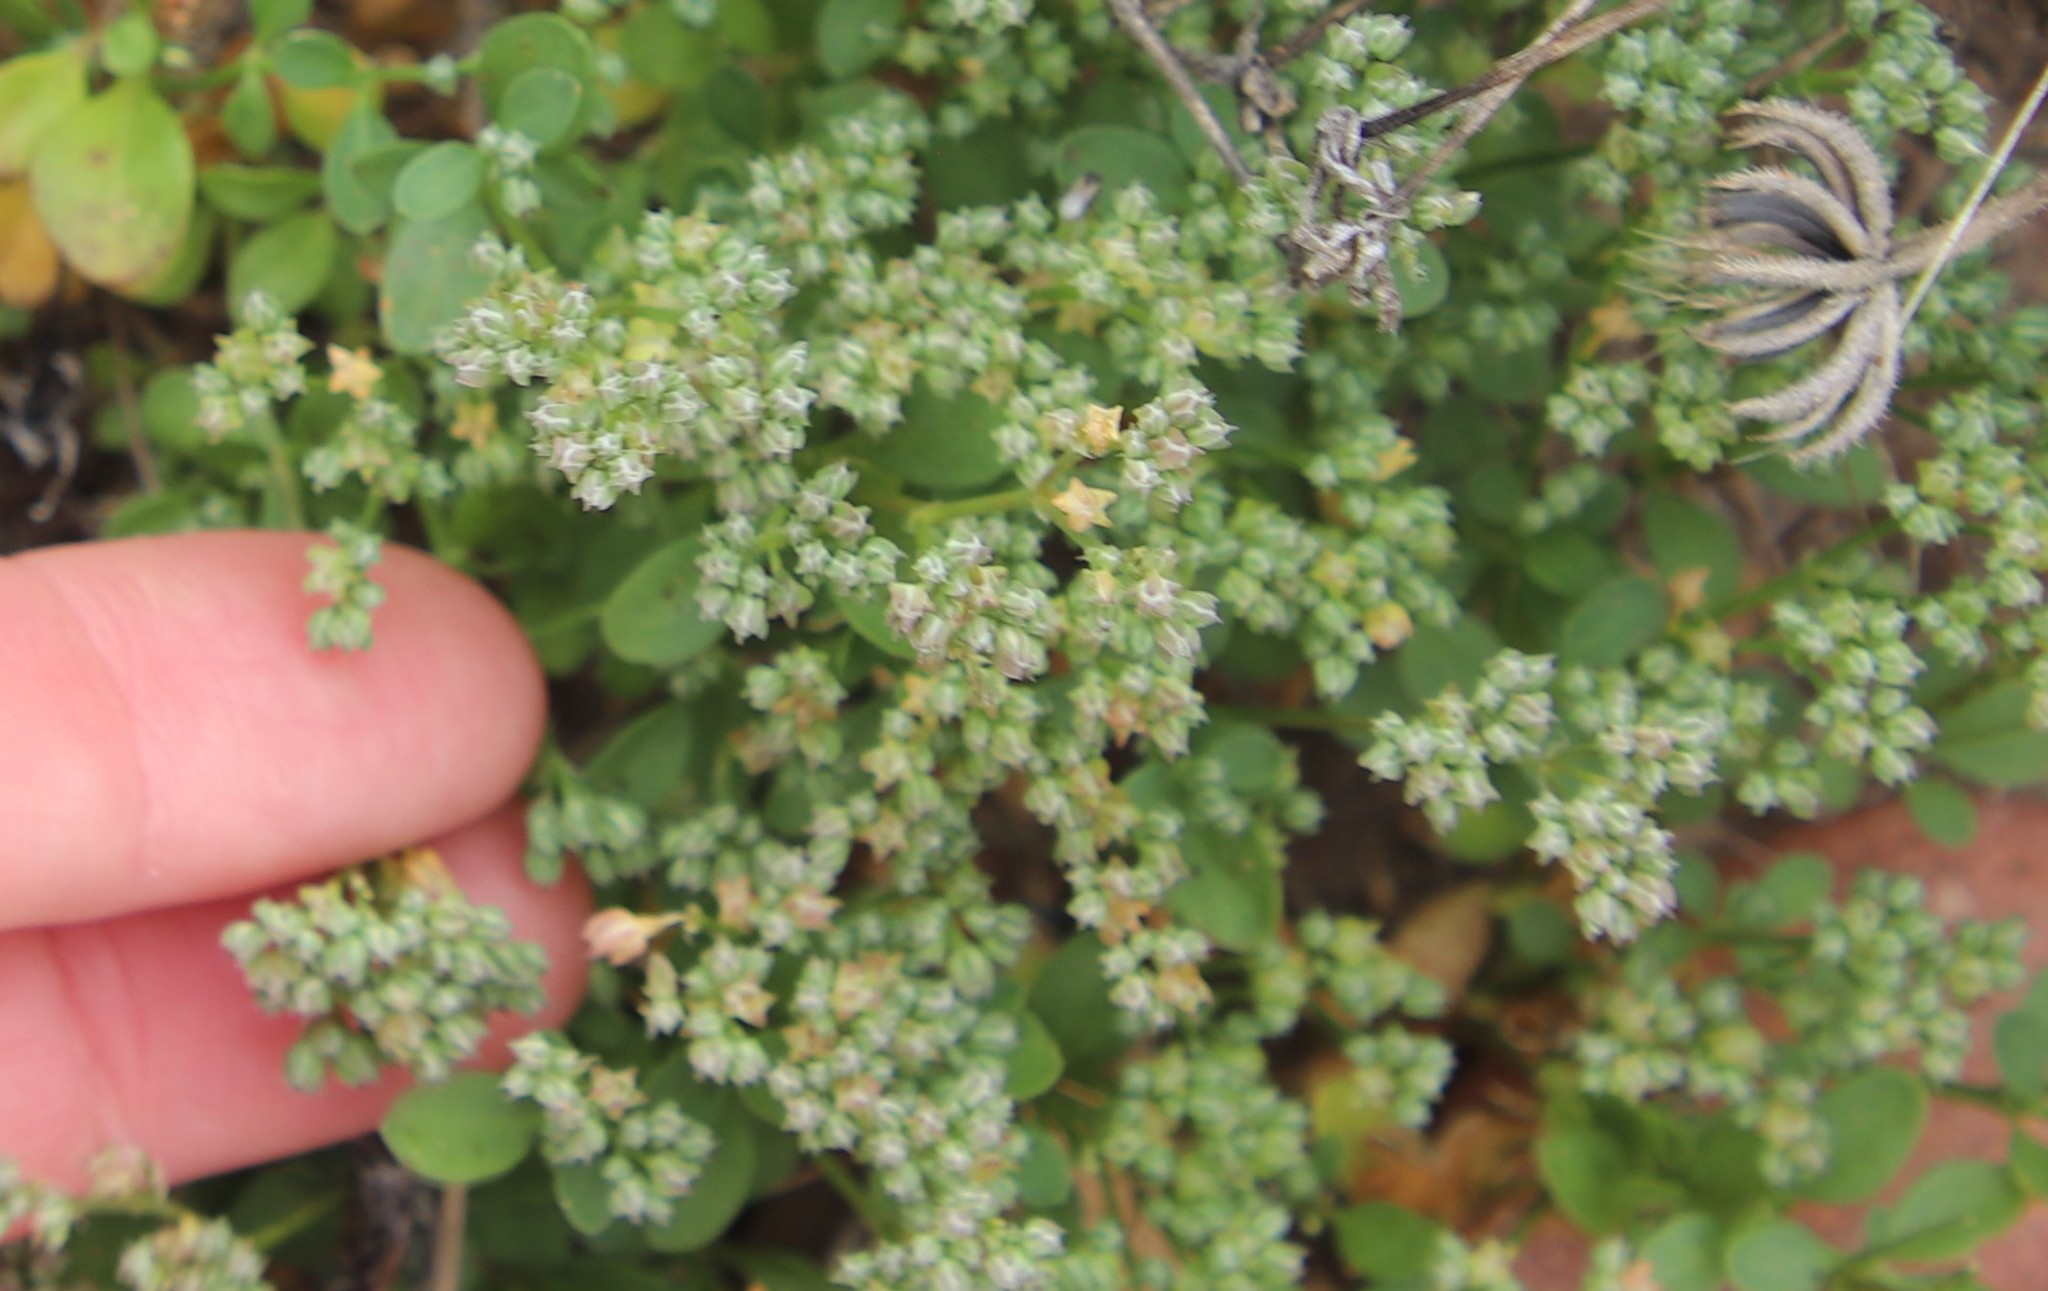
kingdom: Plantae
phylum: Tracheophyta
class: Magnoliopsida
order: Caryophyllales
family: Caryophyllaceae
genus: Polycarpon
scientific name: Polycarpon tetraphyllum
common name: Four-leaved all-seed
